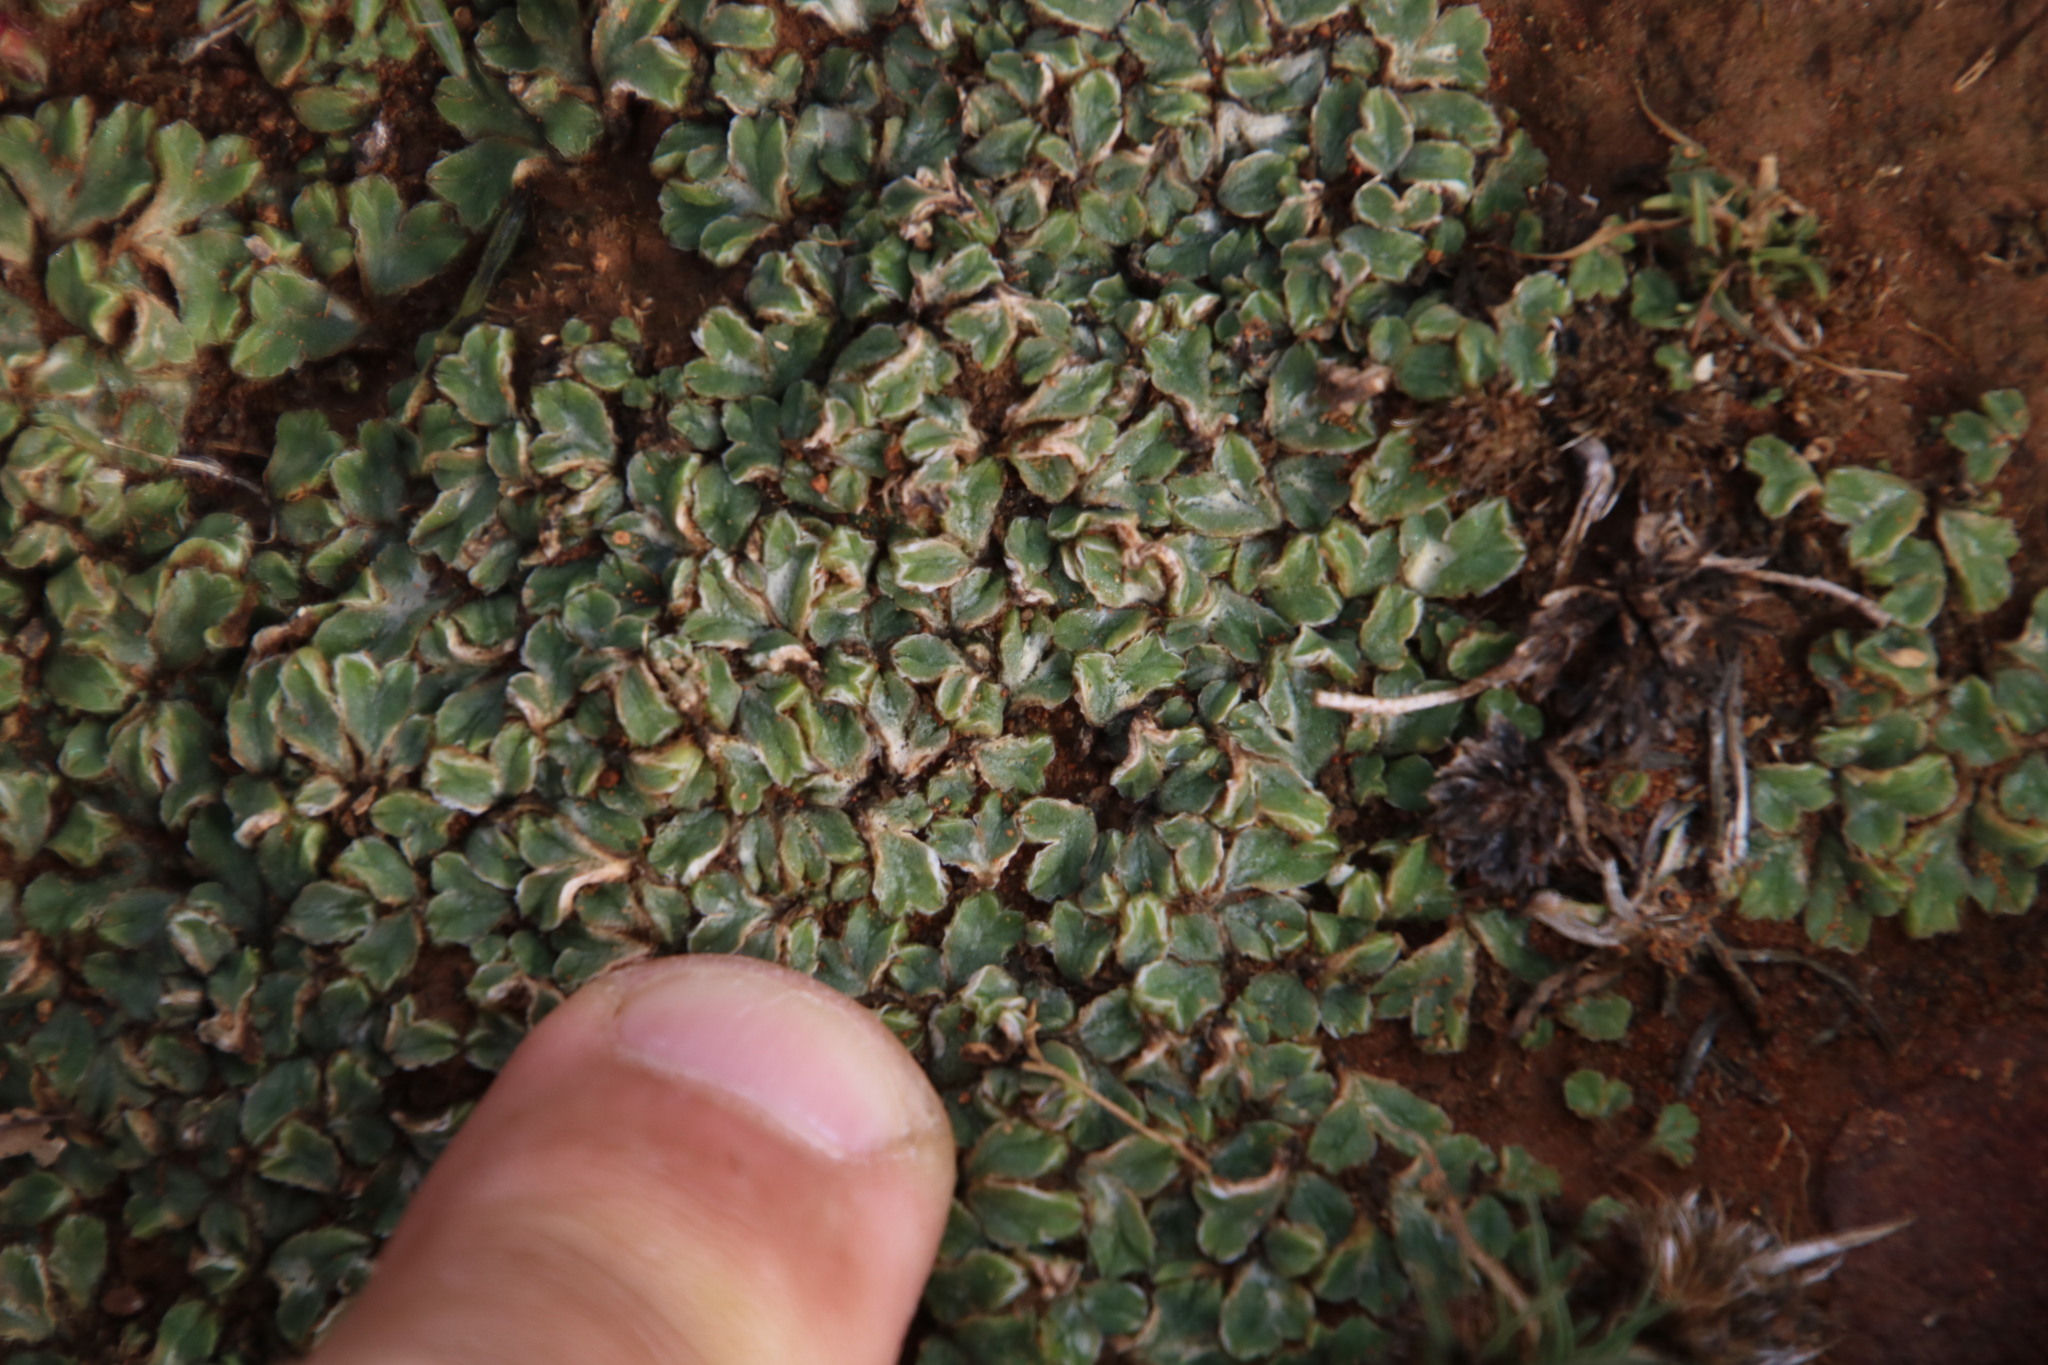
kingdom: Plantae
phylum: Marchantiophyta
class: Marchantiopsida
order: Marchantiales
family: Ricciaceae
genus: Riccia
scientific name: Riccia albovestita
